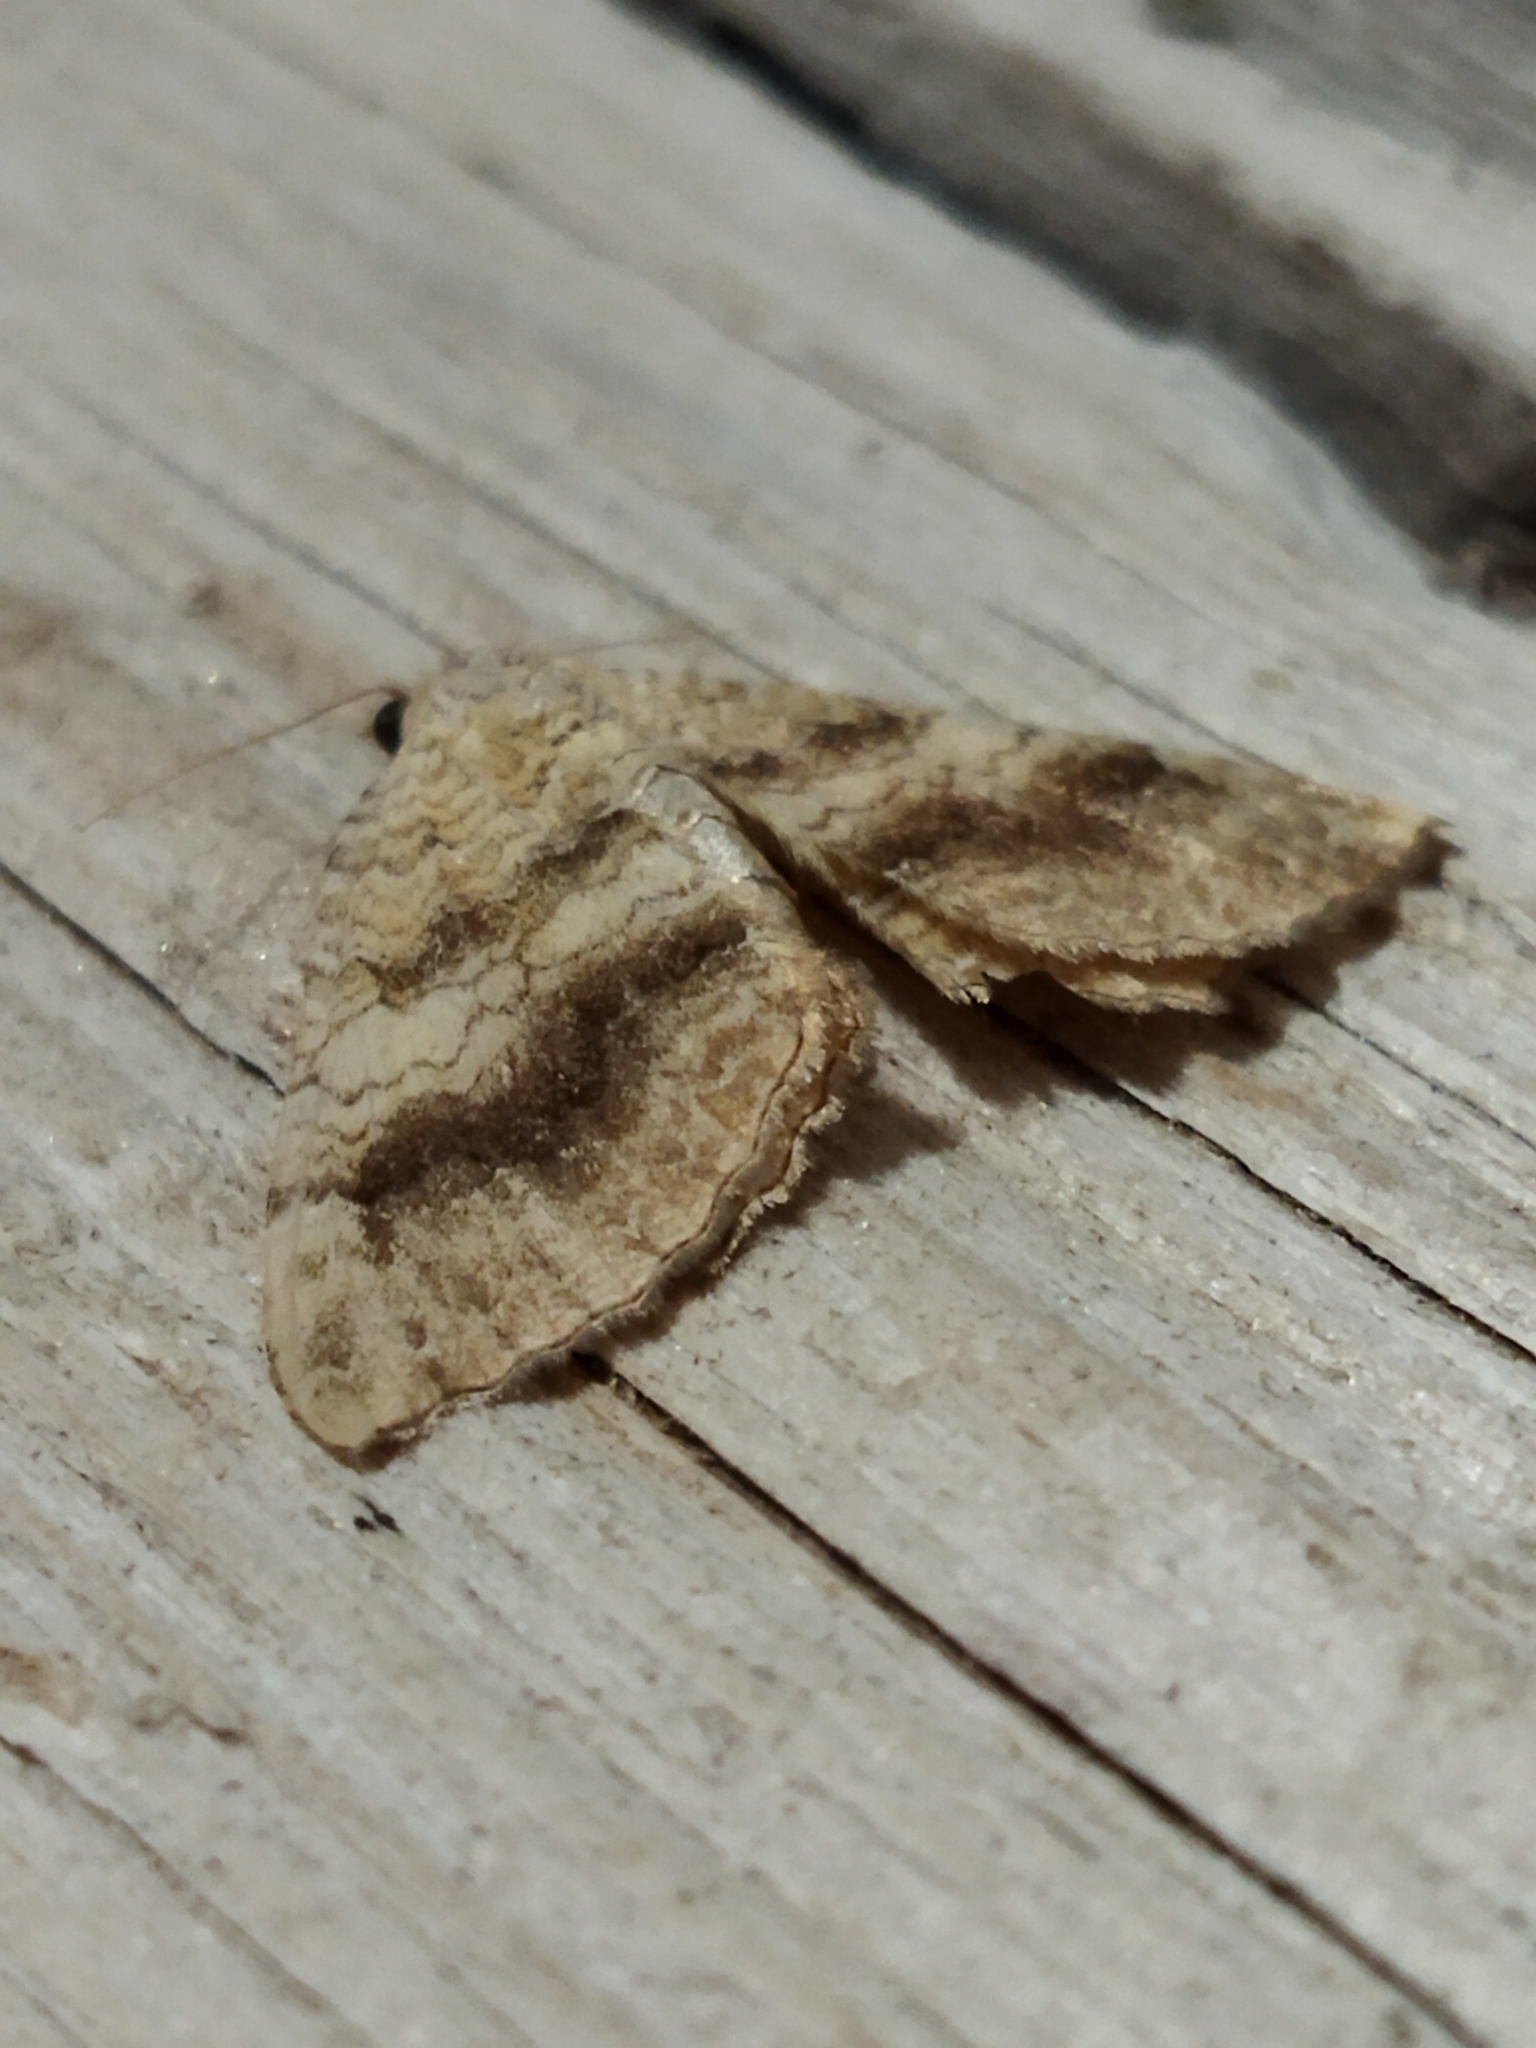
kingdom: Animalia
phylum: Arthropoda
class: Insecta
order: Lepidoptera
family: Geometridae
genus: Camptogramma
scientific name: Camptogramma bilineata
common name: Yellow shell
